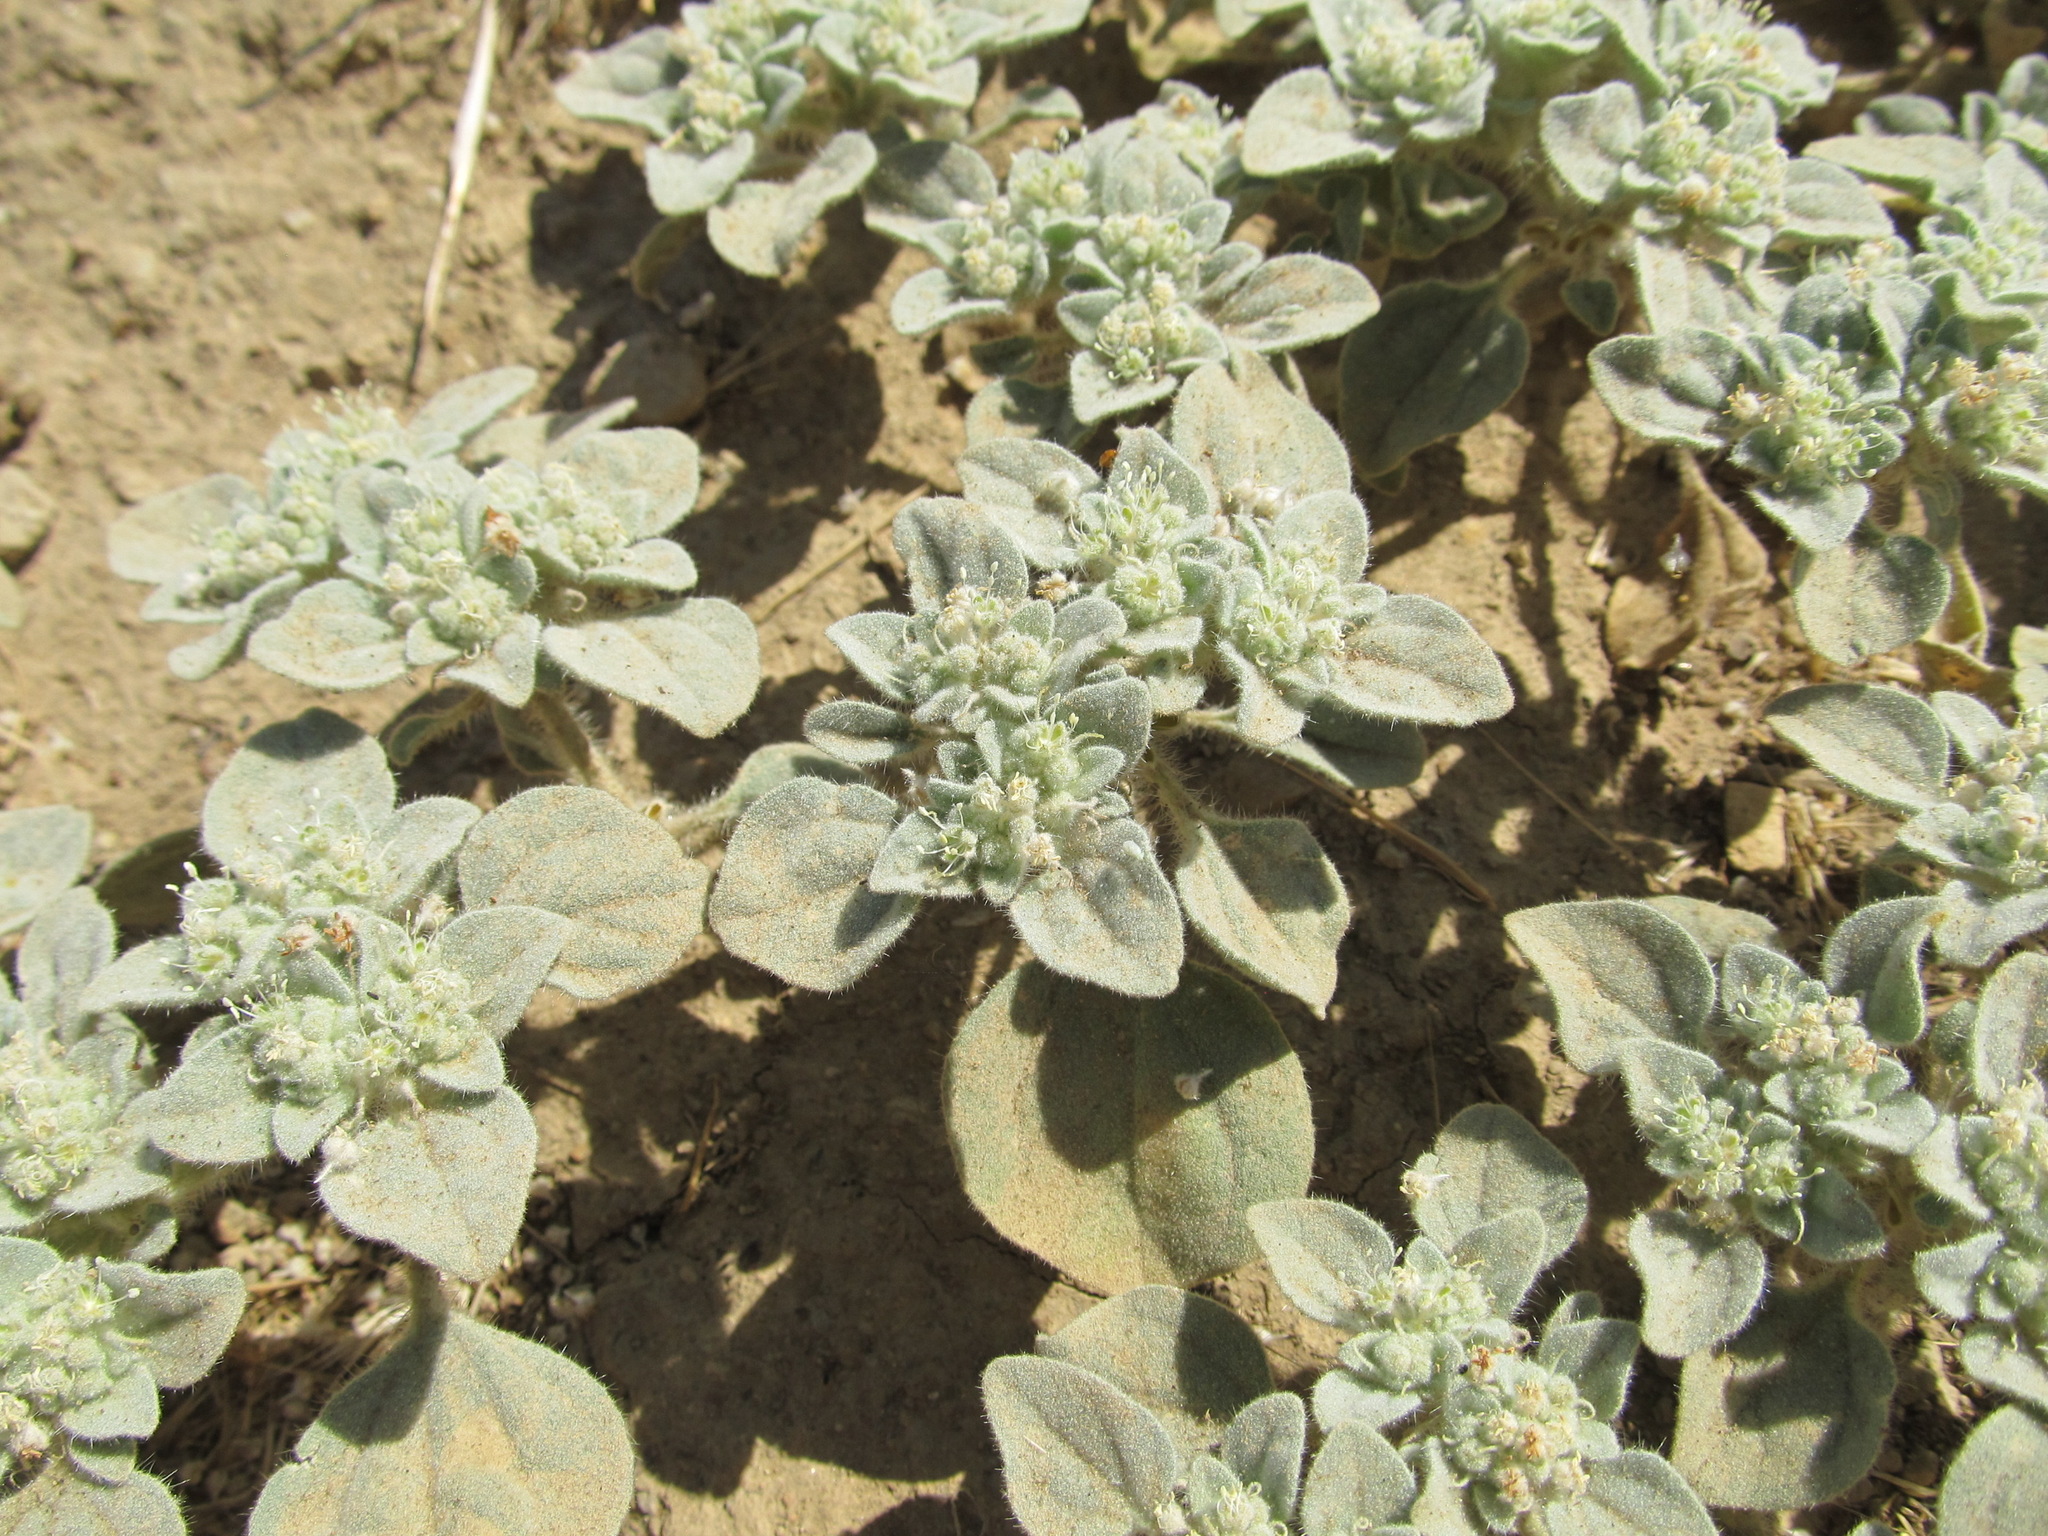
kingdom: Plantae
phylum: Tracheophyta
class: Magnoliopsida
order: Malpighiales
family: Euphorbiaceae
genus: Croton
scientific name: Croton setiger
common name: Dove weed
